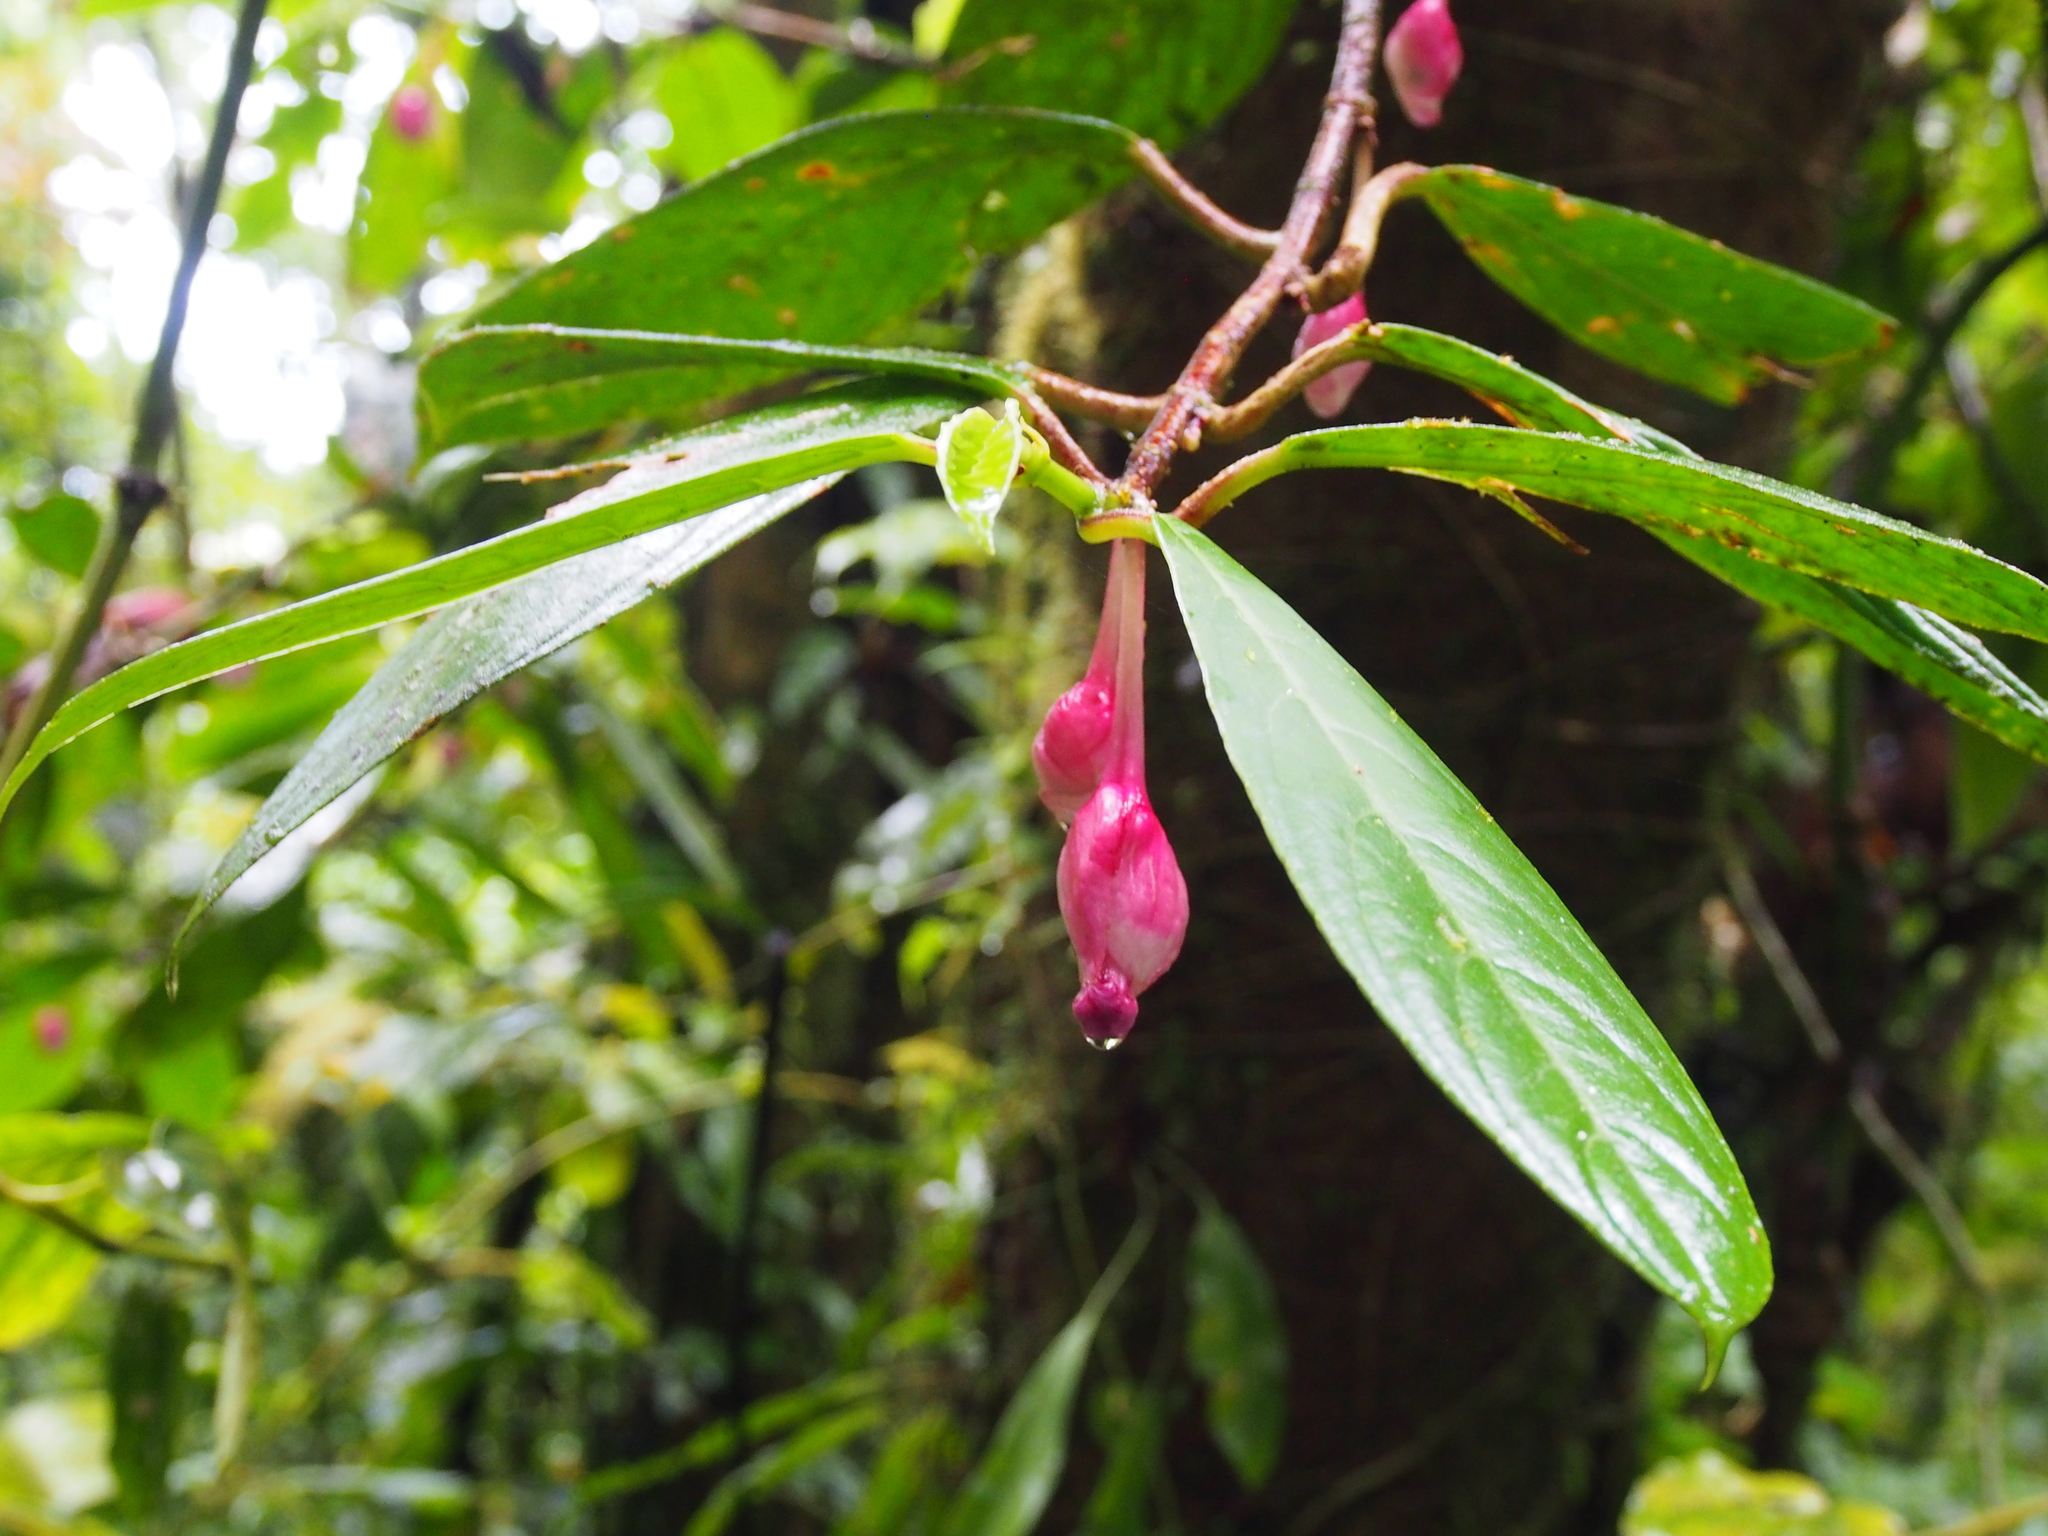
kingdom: Plantae
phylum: Tracheophyta
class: Magnoliopsida
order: Lamiales
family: Gesneriaceae
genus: Drymonia
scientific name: Drymonia conchocalyx
